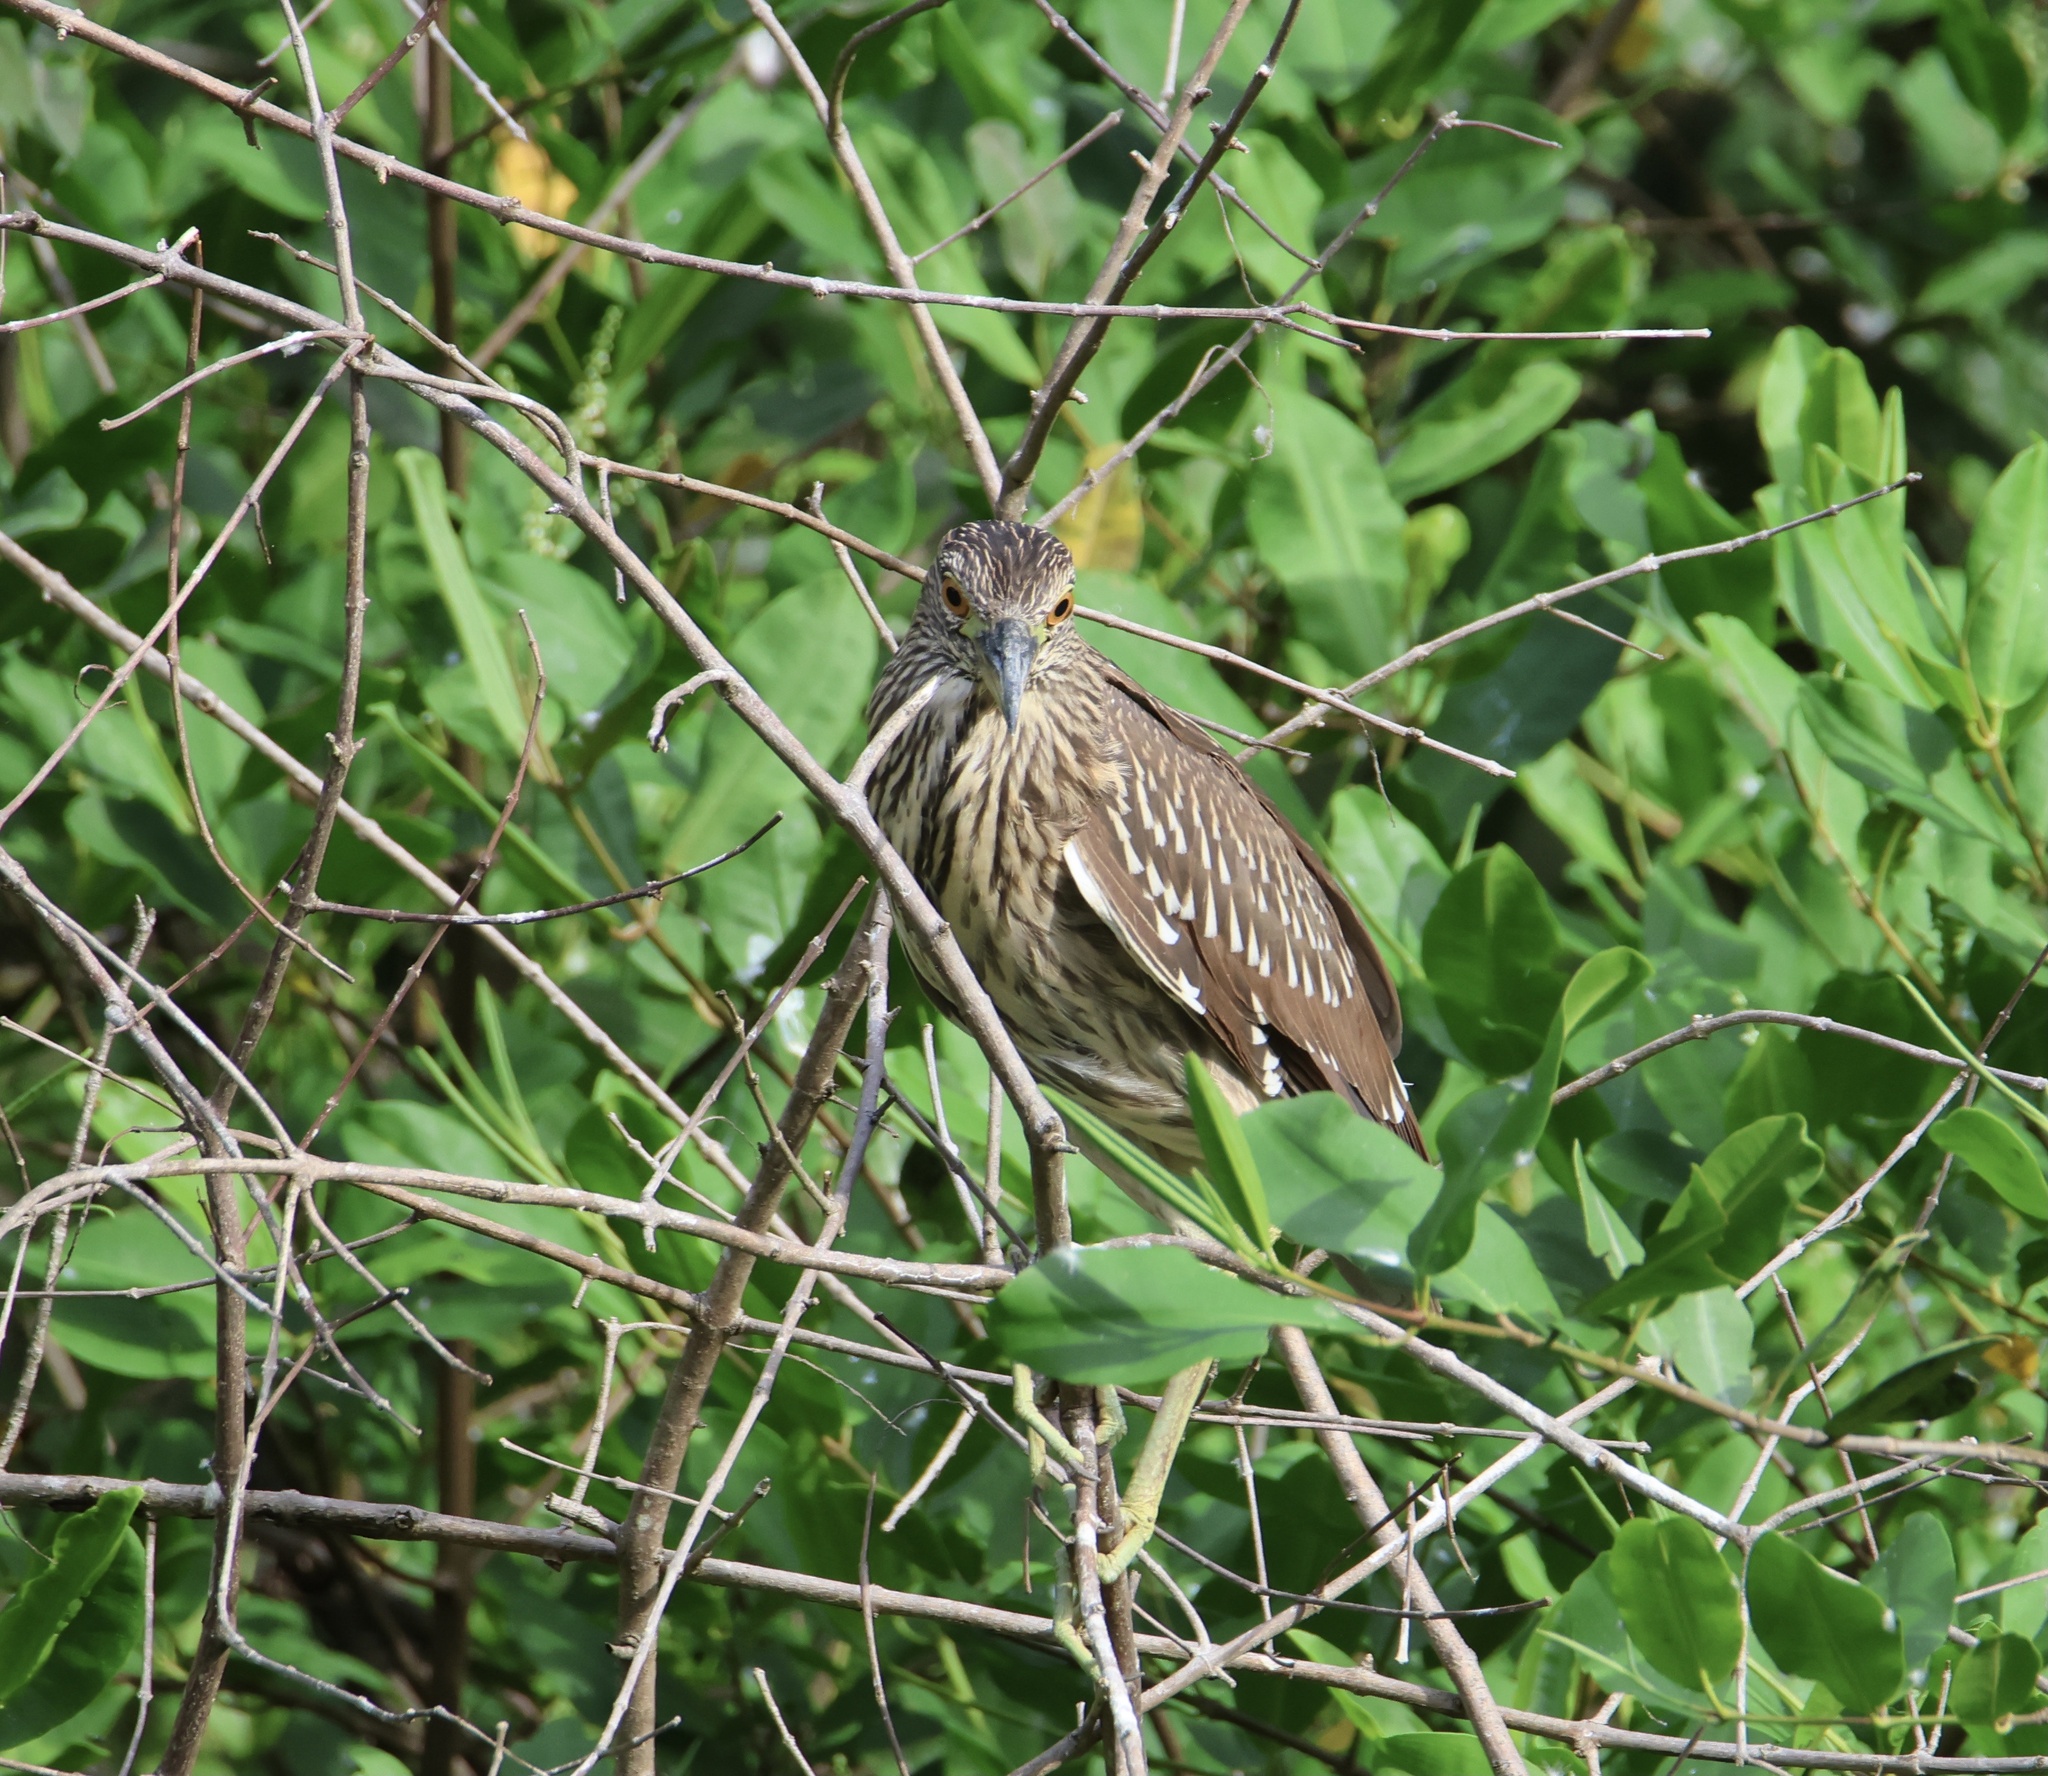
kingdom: Animalia
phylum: Chordata
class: Aves
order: Pelecaniformes
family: Ardeidae
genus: Nycticorax
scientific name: Nycticorax nycticorax
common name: Black-crowned night heron
